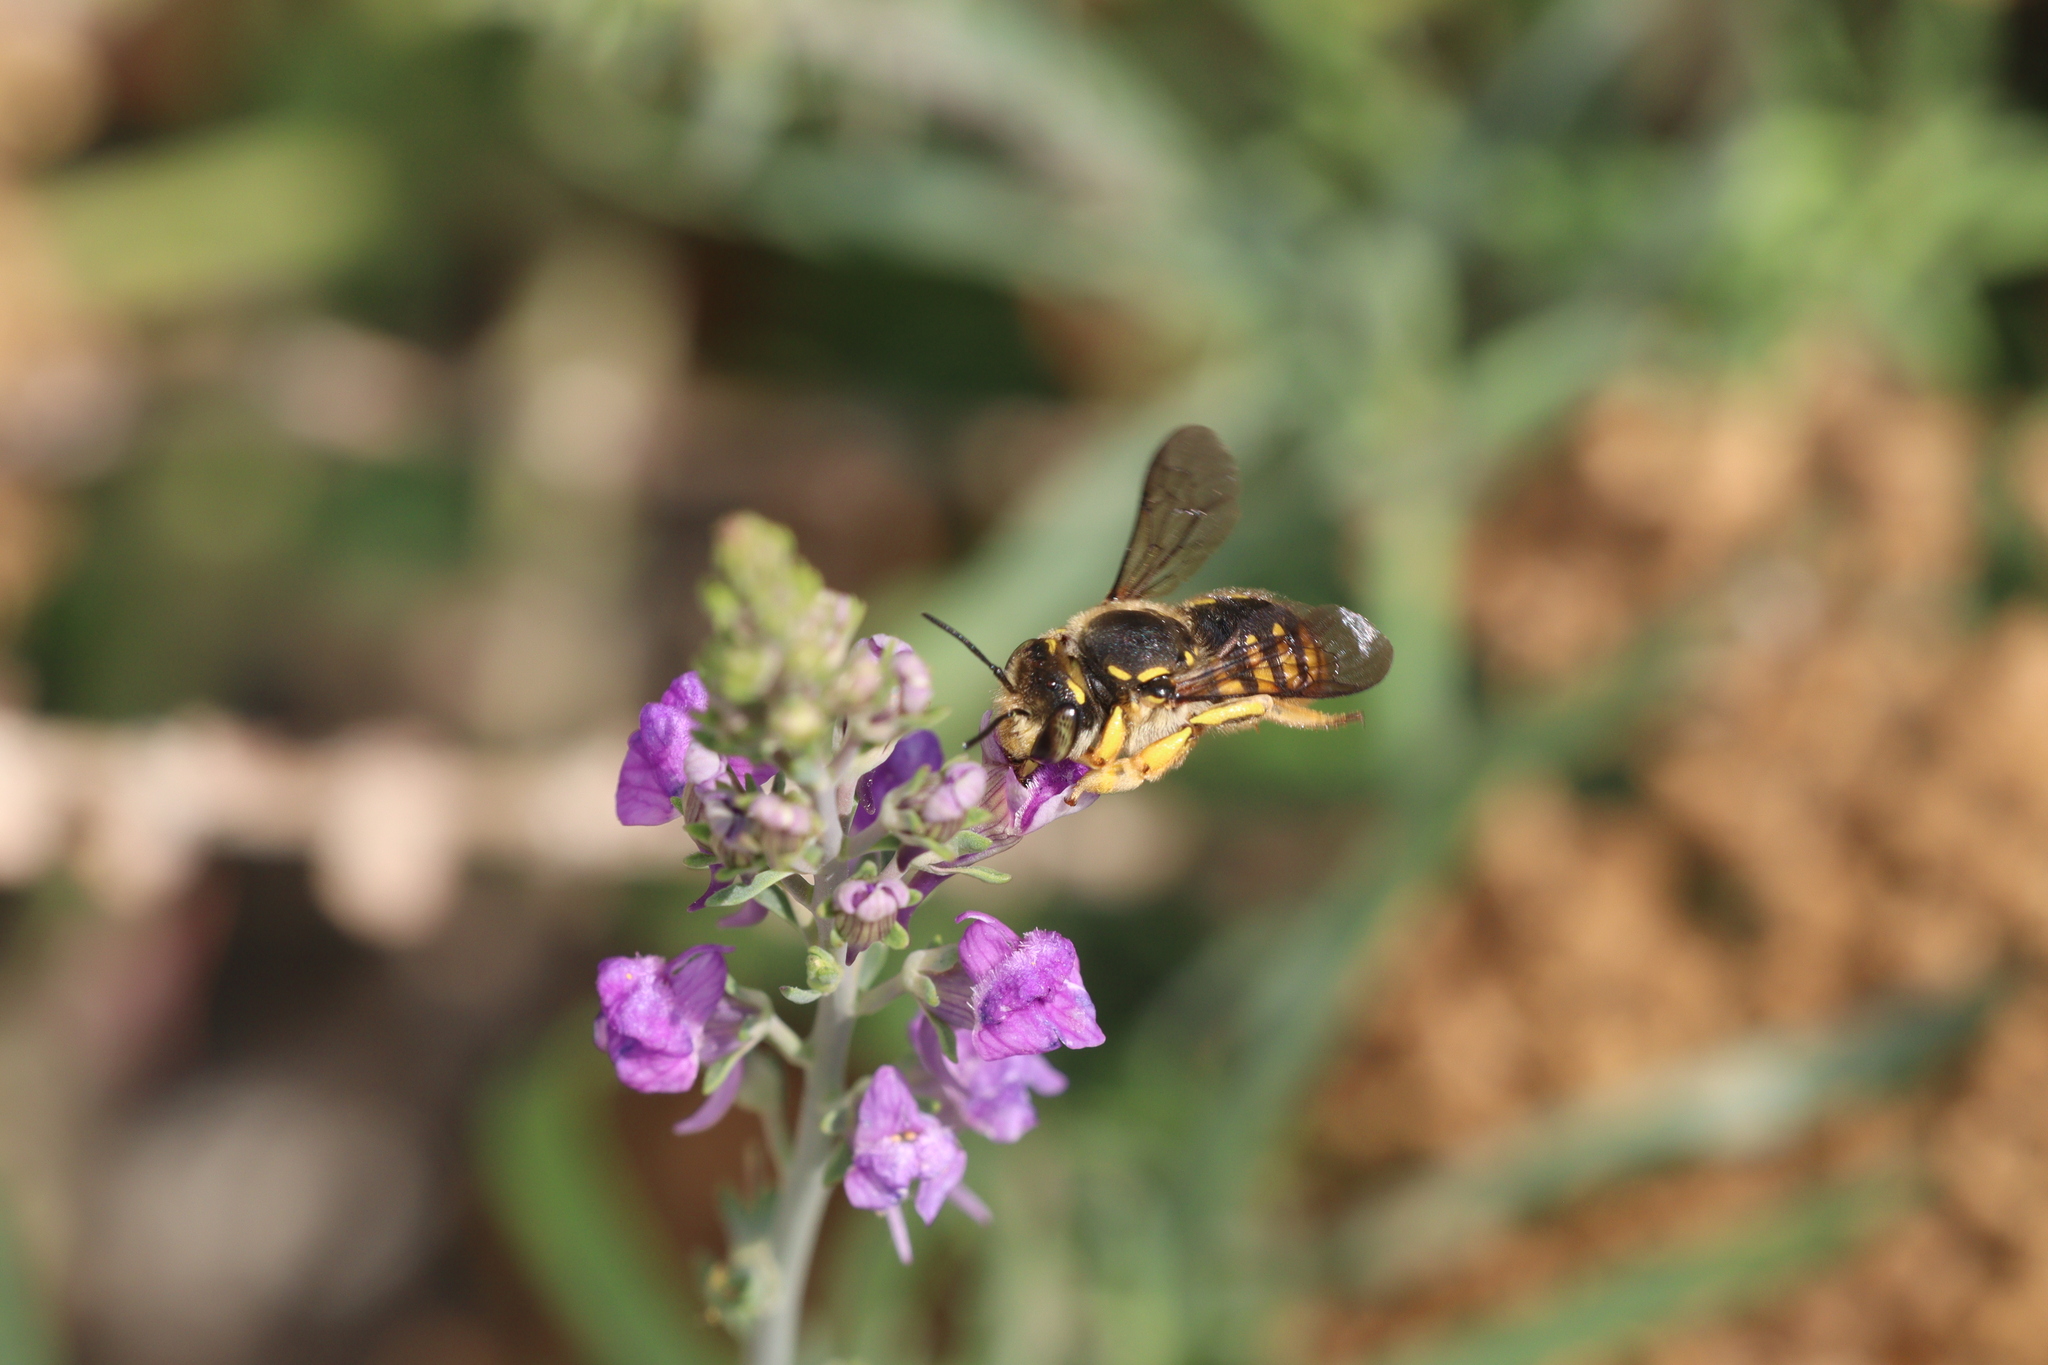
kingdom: Animalia
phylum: Arthropoda
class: Insecta
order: Hymenoptera
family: Megachilidae
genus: Anthidium
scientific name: Anthidium manicatum
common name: Wool carder bee
